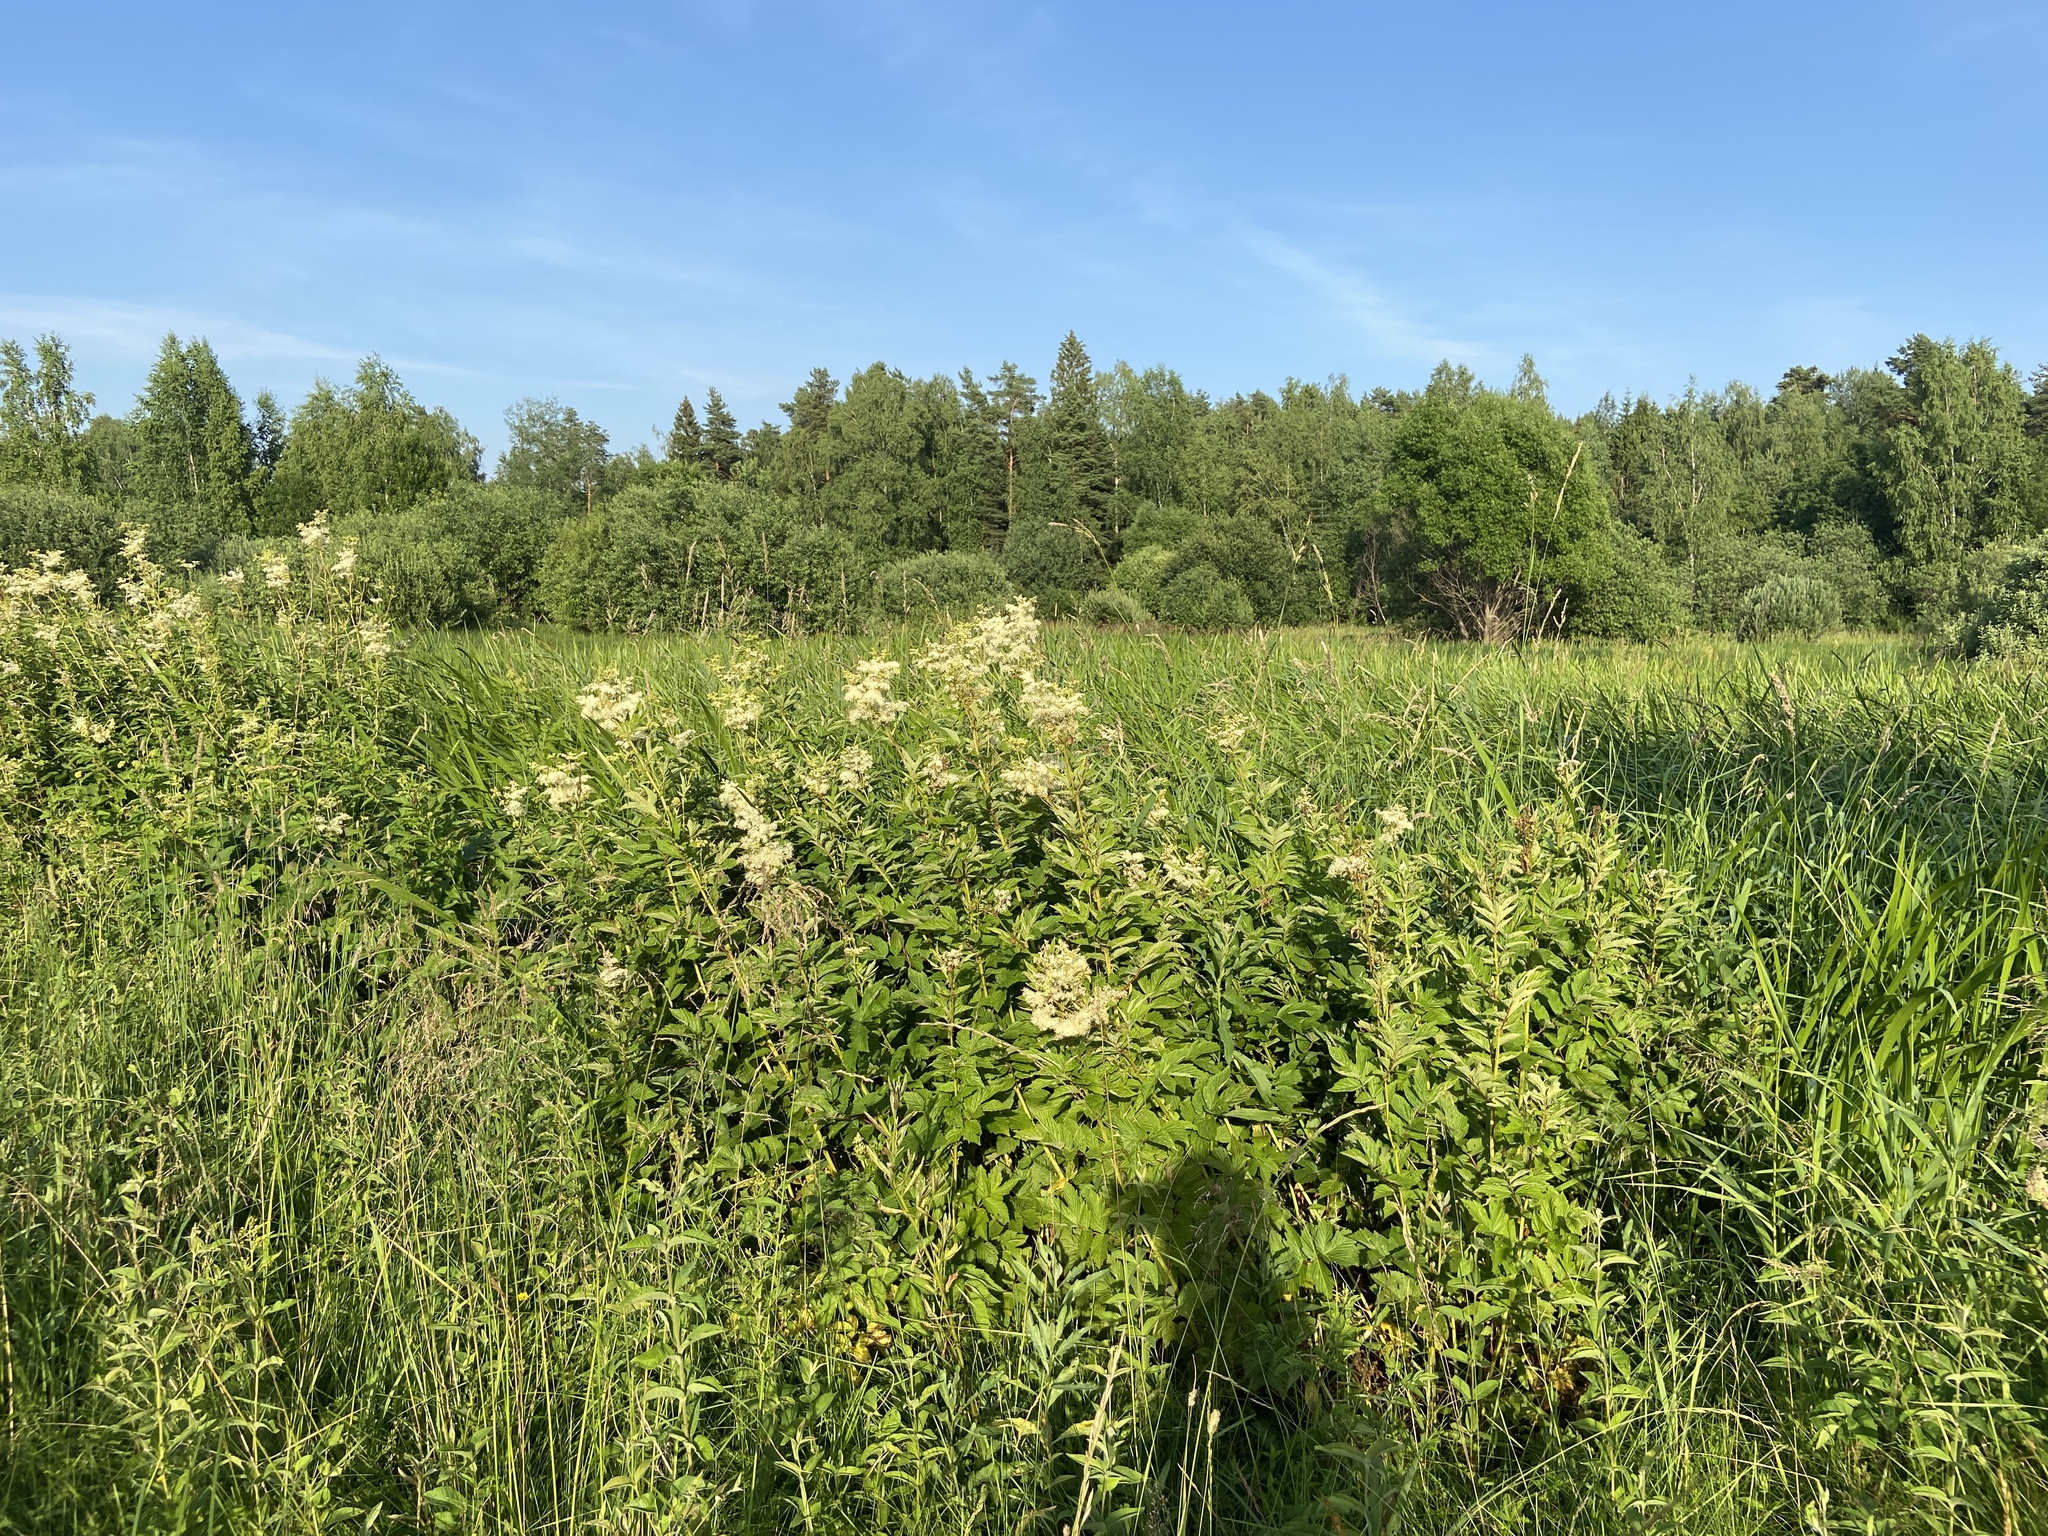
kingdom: Plantae
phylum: Tracheophyta
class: Magnoliopsida
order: Rosales
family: Rosaceae
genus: Filipendula
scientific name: Filipendula ulmaria
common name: Meadowsweet
